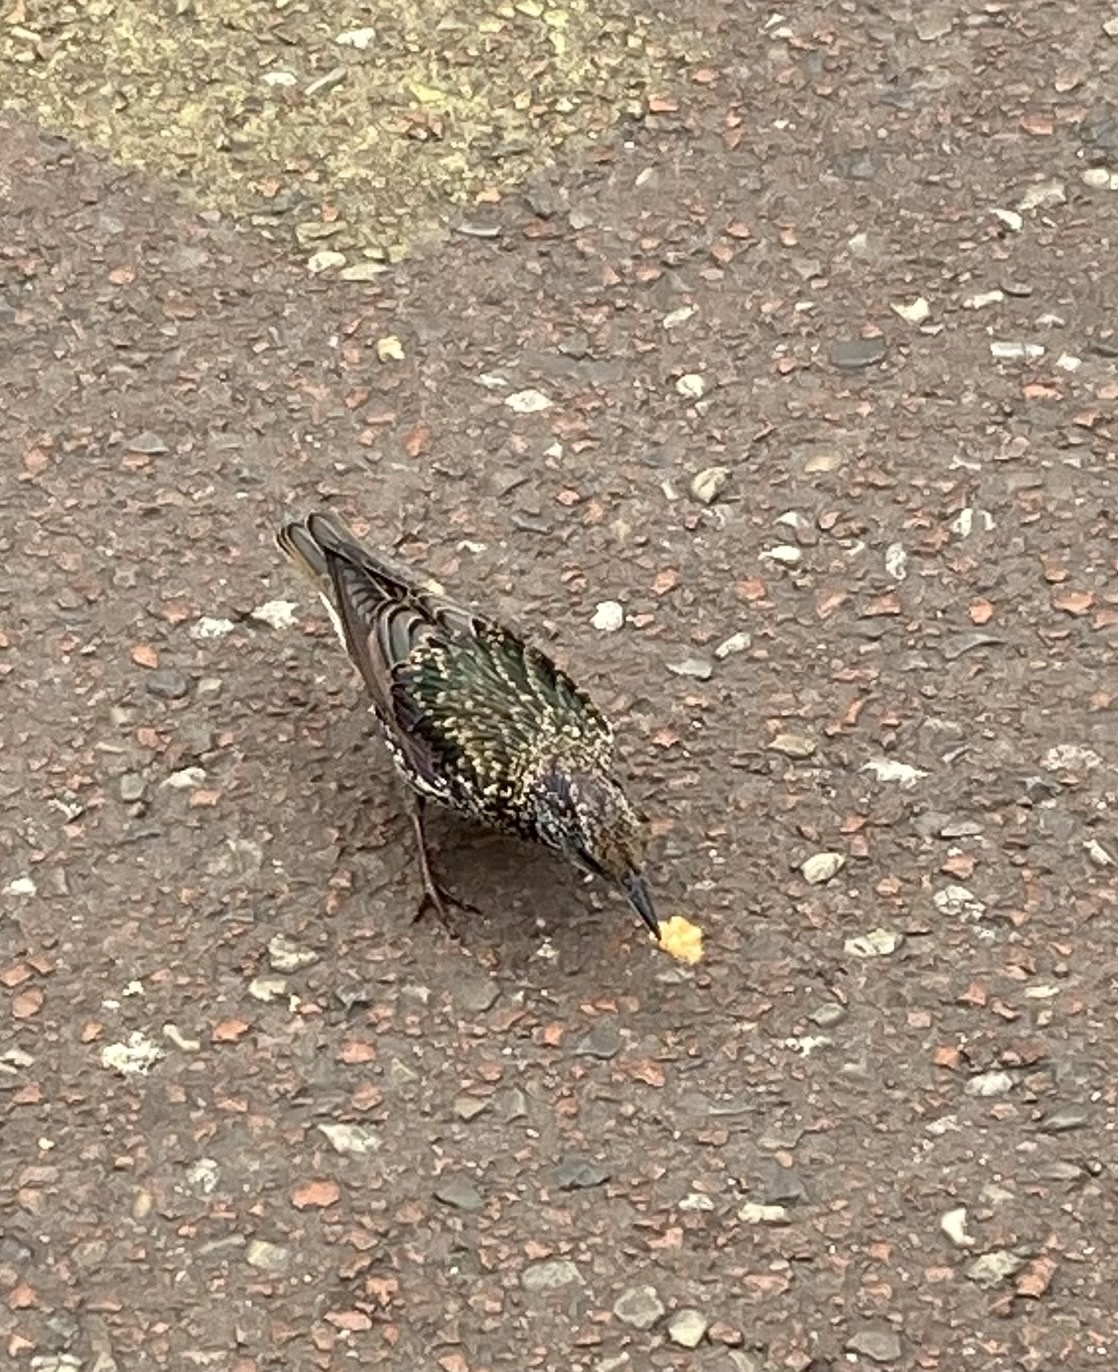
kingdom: Animalia
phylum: Chordata
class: Aves
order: Passeriformes
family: Sturnidae
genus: Sturnus
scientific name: Sturnus vulgaris
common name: Common starling
